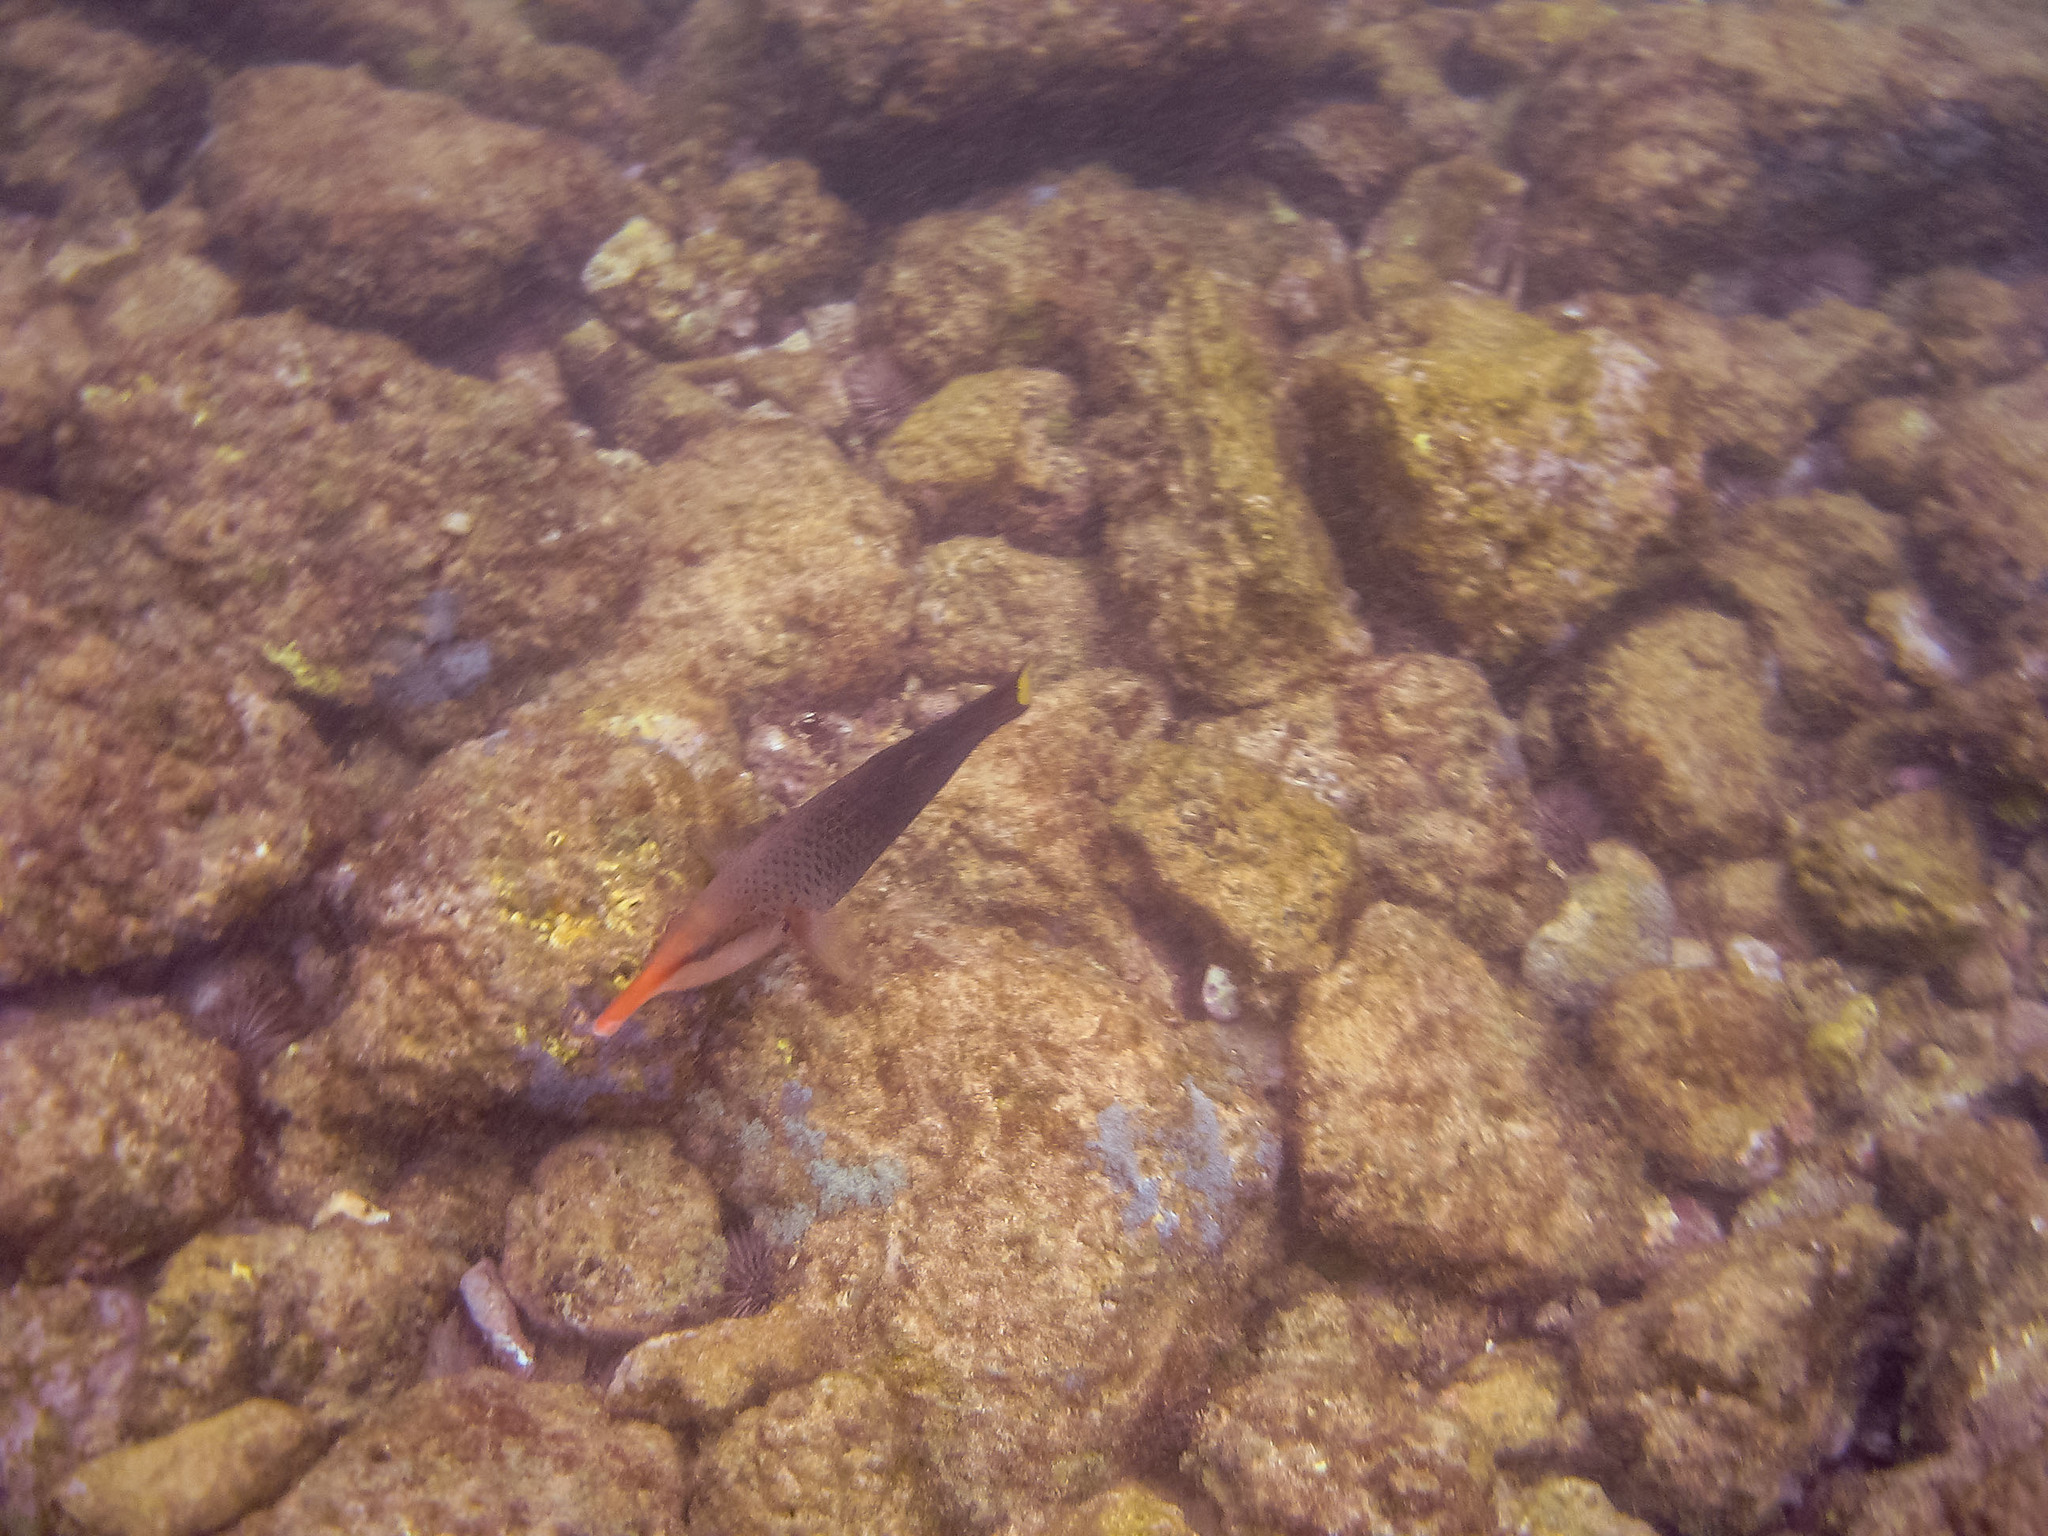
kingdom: Animalia
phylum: Chordata
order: Perciformes
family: Labridae
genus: Gomphosus
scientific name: Gomphosus varius
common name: Bird wrasse
